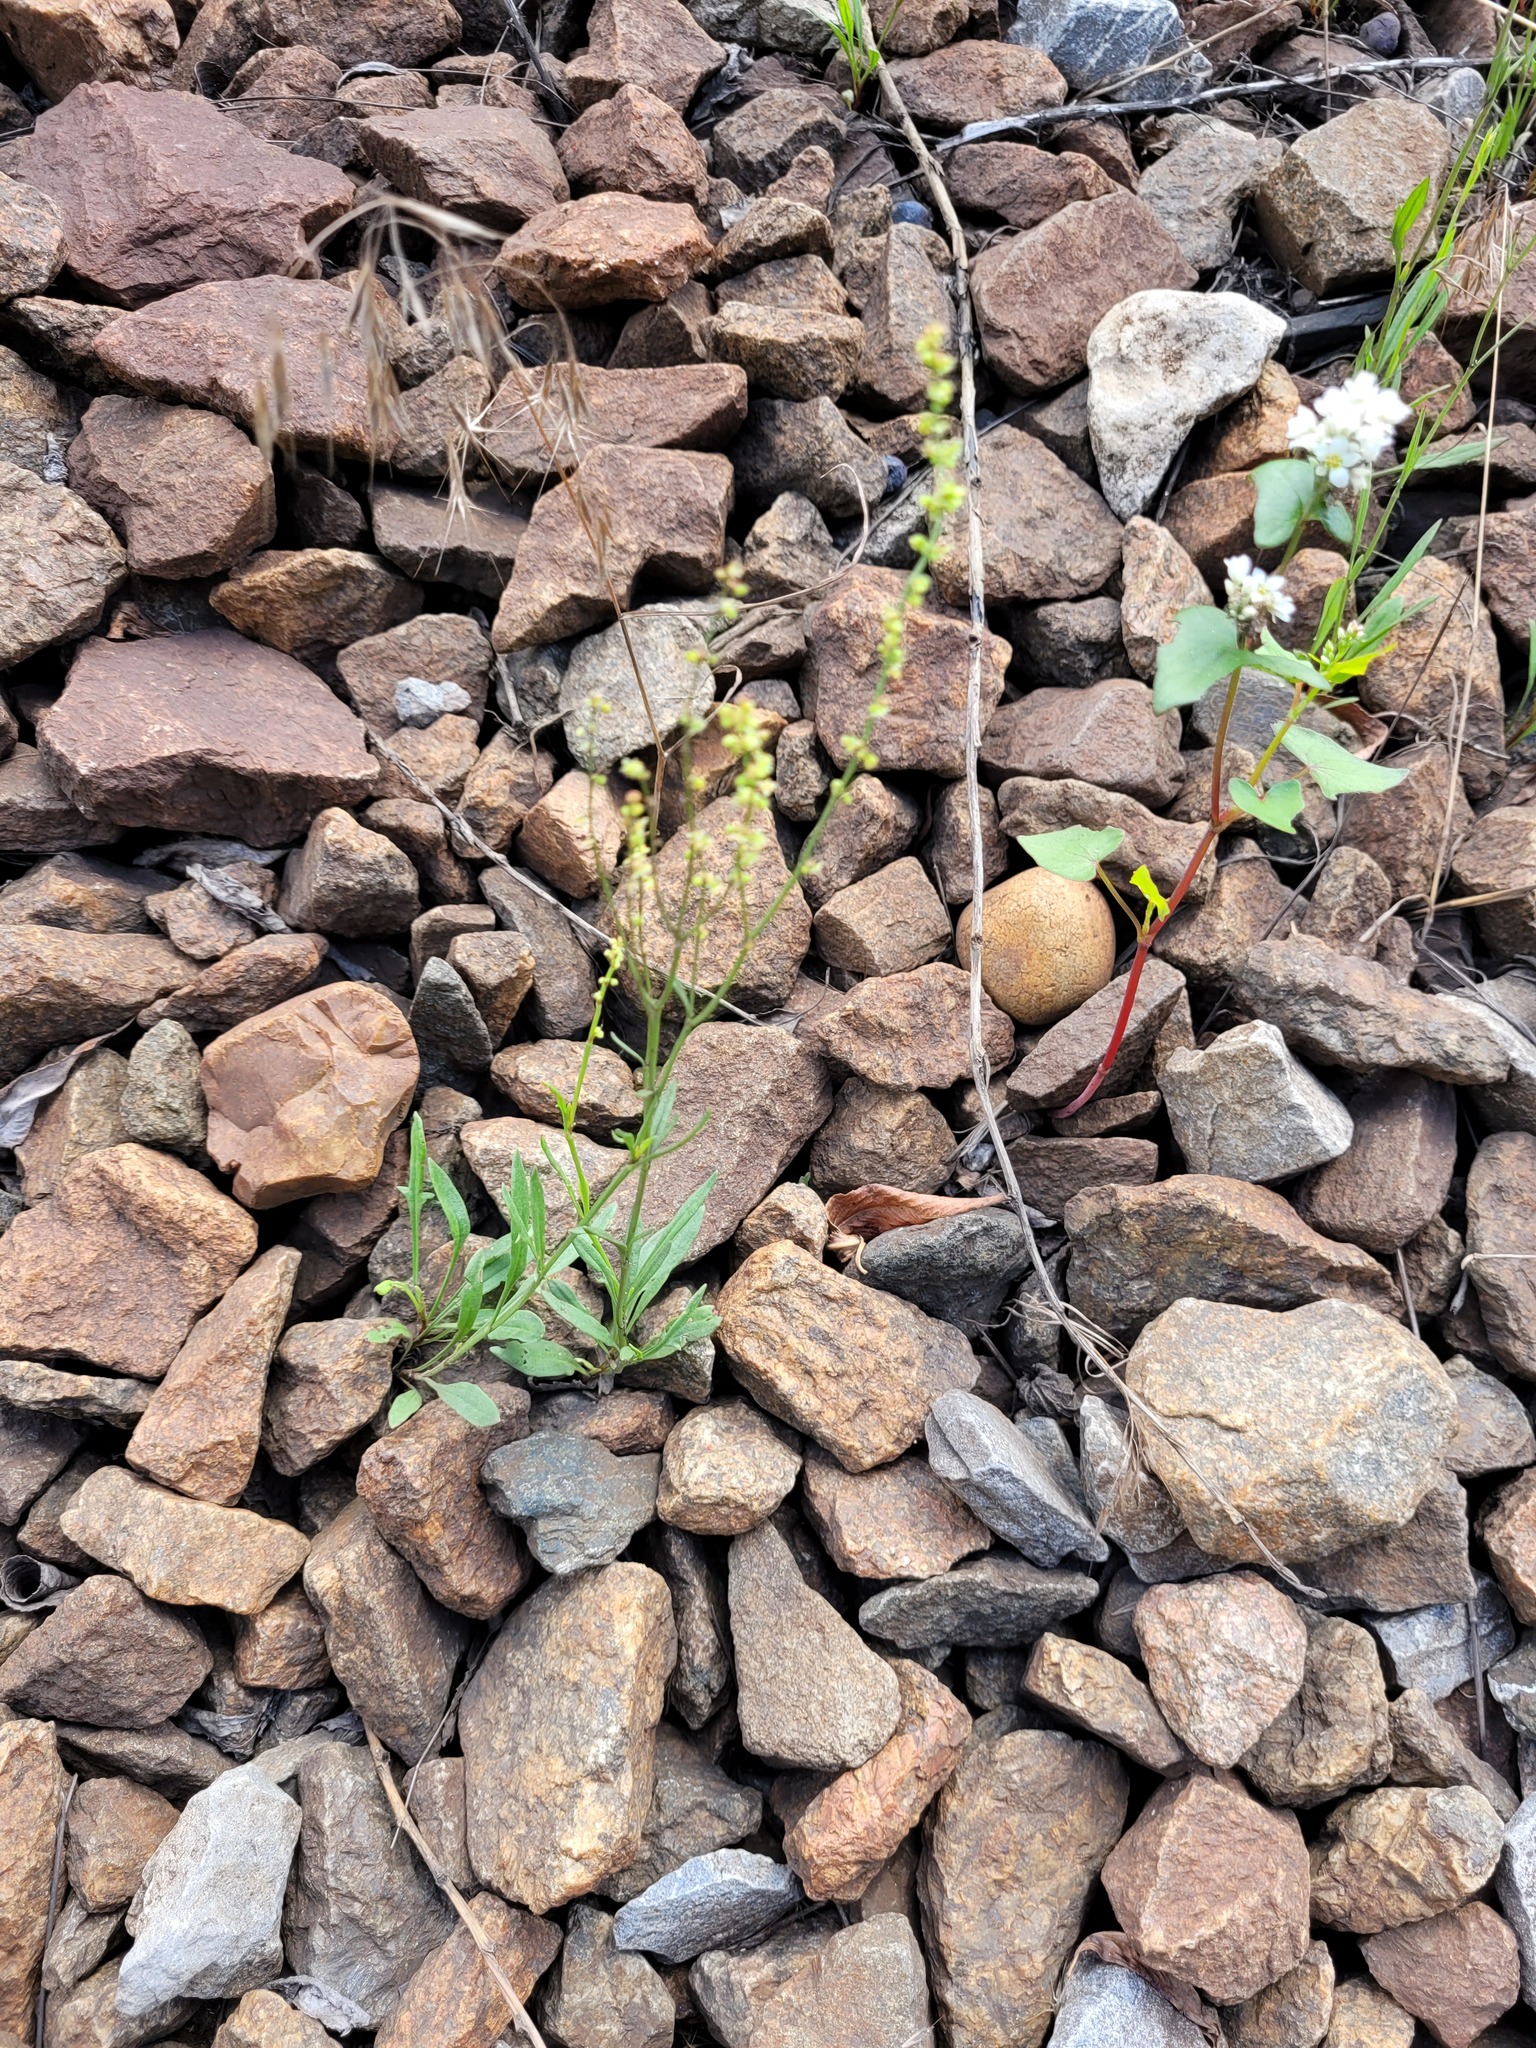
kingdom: Plantae
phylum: Tracheophyta
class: Magnoliopsida
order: Caryophyllales
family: Polygonaceae
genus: Rumex
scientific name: Rumex acetosella
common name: Common sheep sorrel
